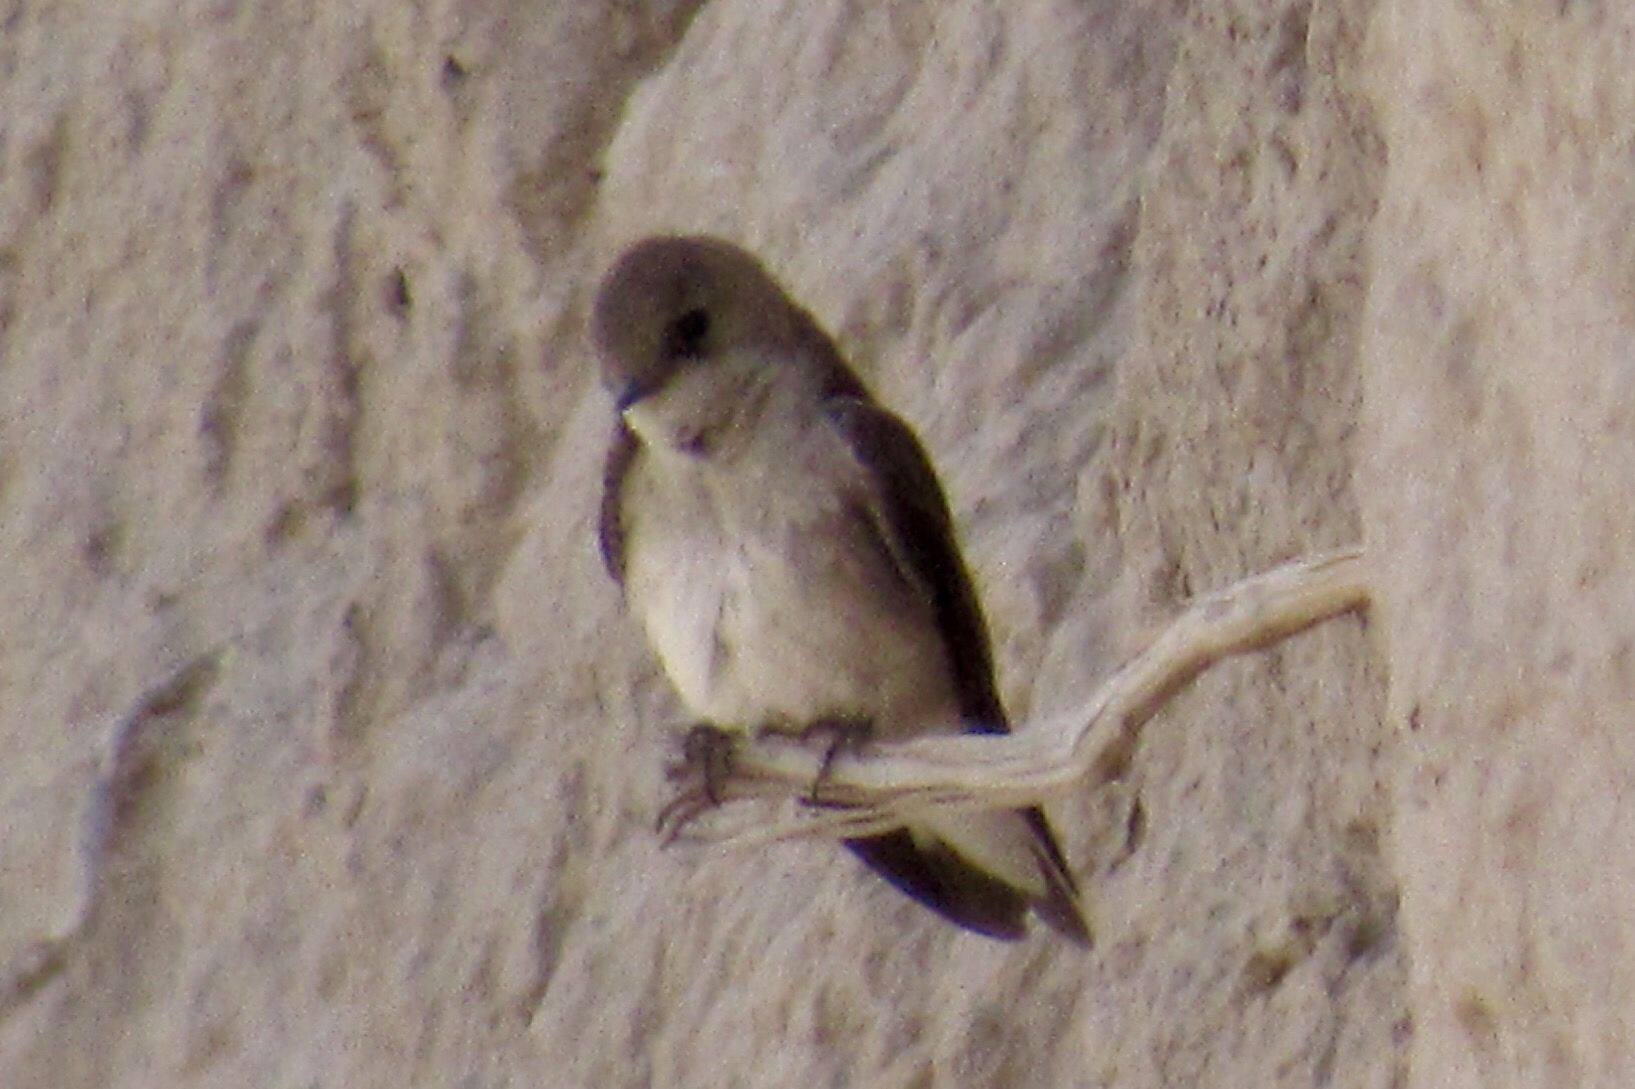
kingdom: Animalia
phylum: Chordata
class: Aves
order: Passeriformes
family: Hirundinidae
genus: Stelgidopteryx
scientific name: Stelgidopteryx serripennis
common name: Northern rough-winged swallow
